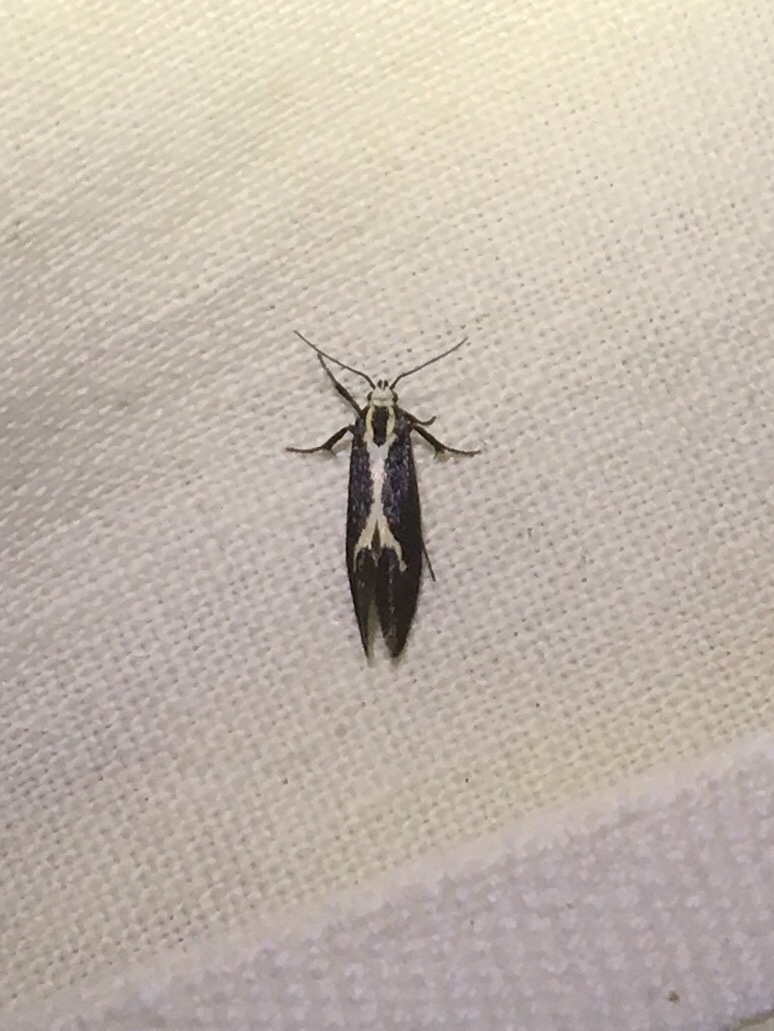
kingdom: Animalia
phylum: Arthropoda
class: Insecta
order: Lepidoptera
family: Oecophoridae
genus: Polix
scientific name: Polix coloradella
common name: Skunk moth
